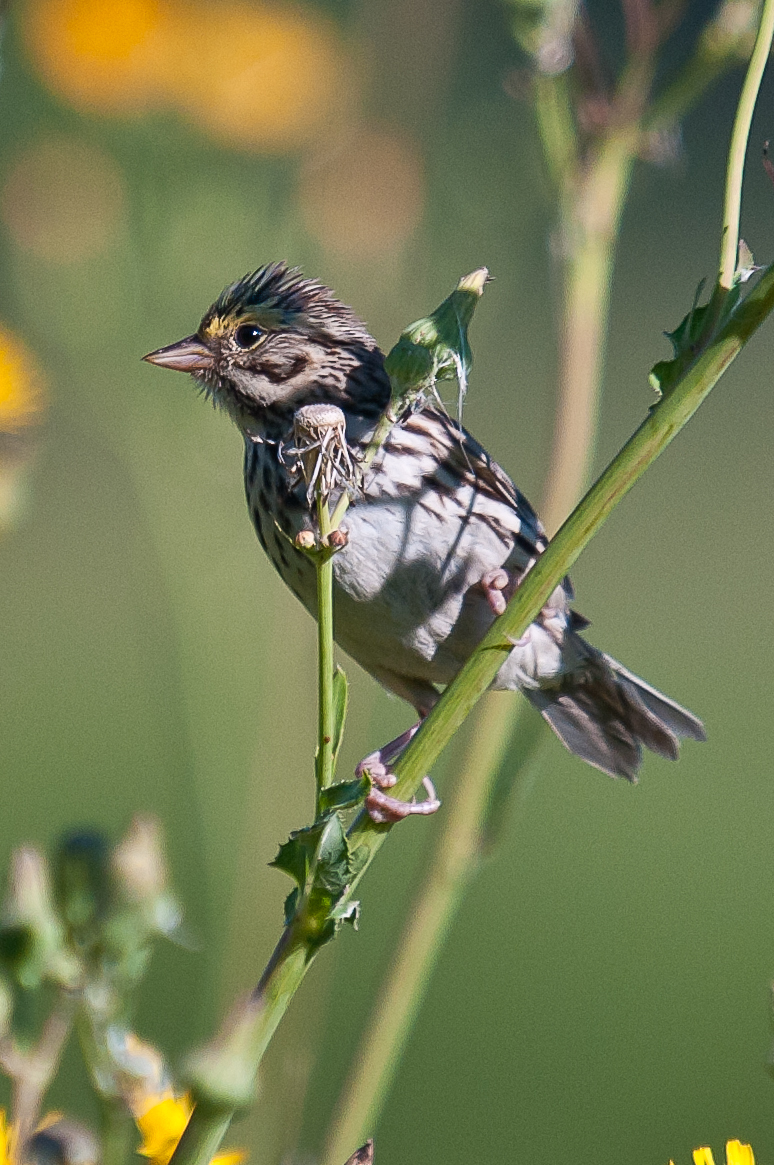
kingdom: Animalia
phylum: Chordata
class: Aves
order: Passeriformes
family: Passerellidae
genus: Passerculus
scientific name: Passerculus sandwichensis
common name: Savannah sparrow
